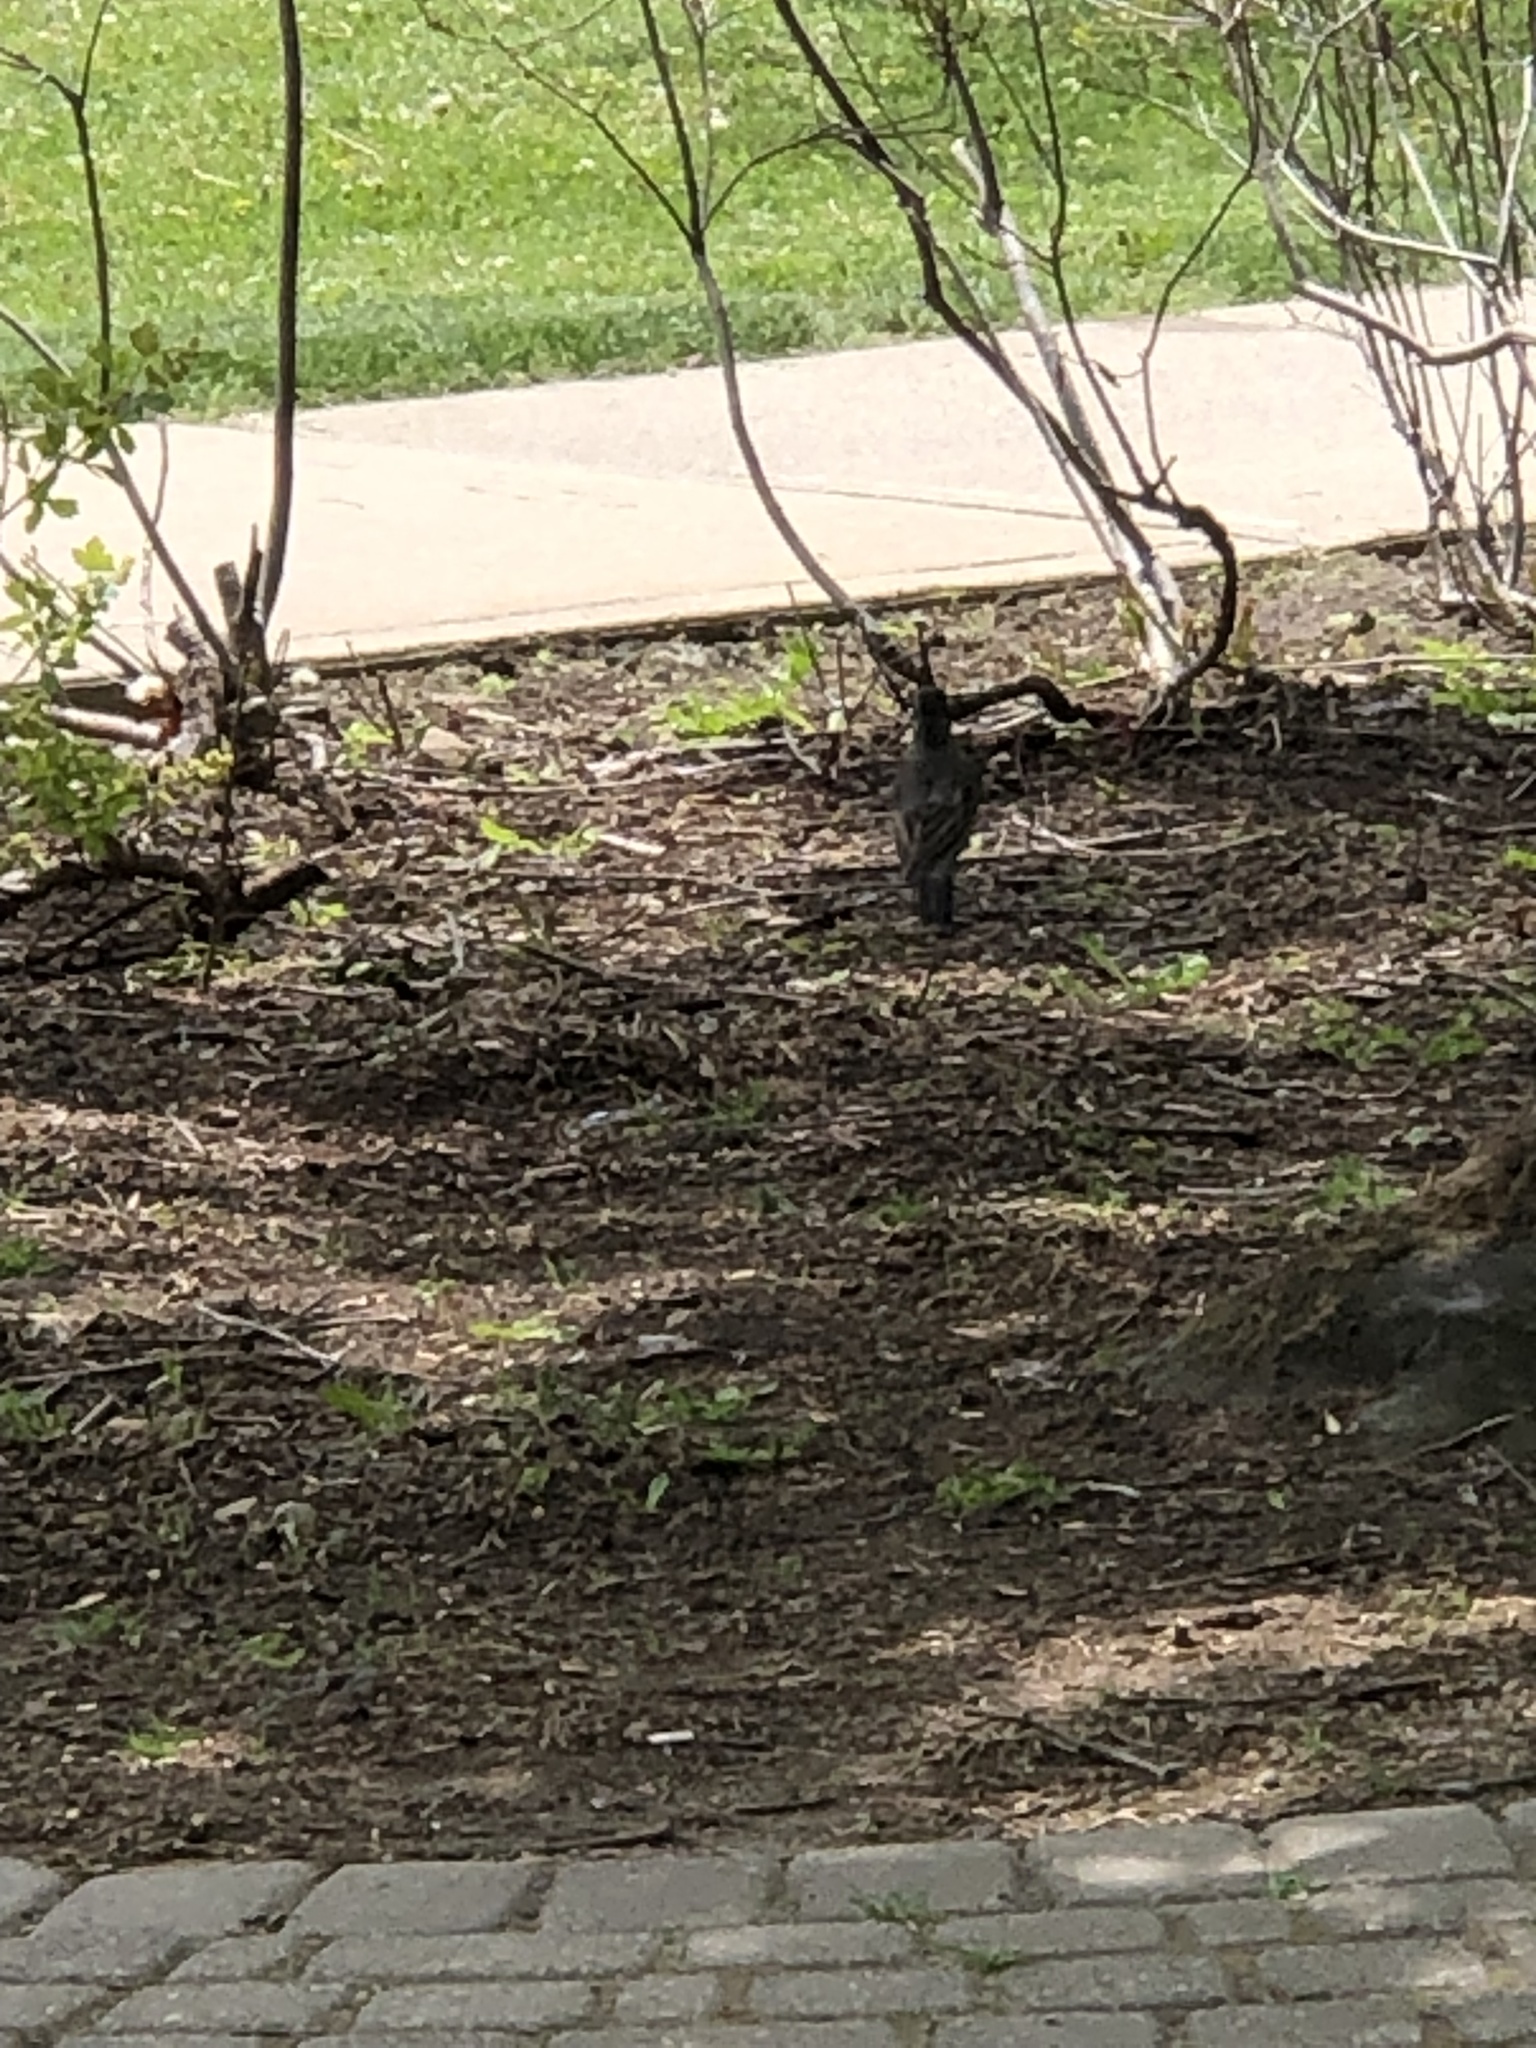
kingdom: Animalia
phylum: Chordata
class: Aves
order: Passeriformes
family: Turdidae
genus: Turdus
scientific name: Turdus migratorius
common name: American robin
